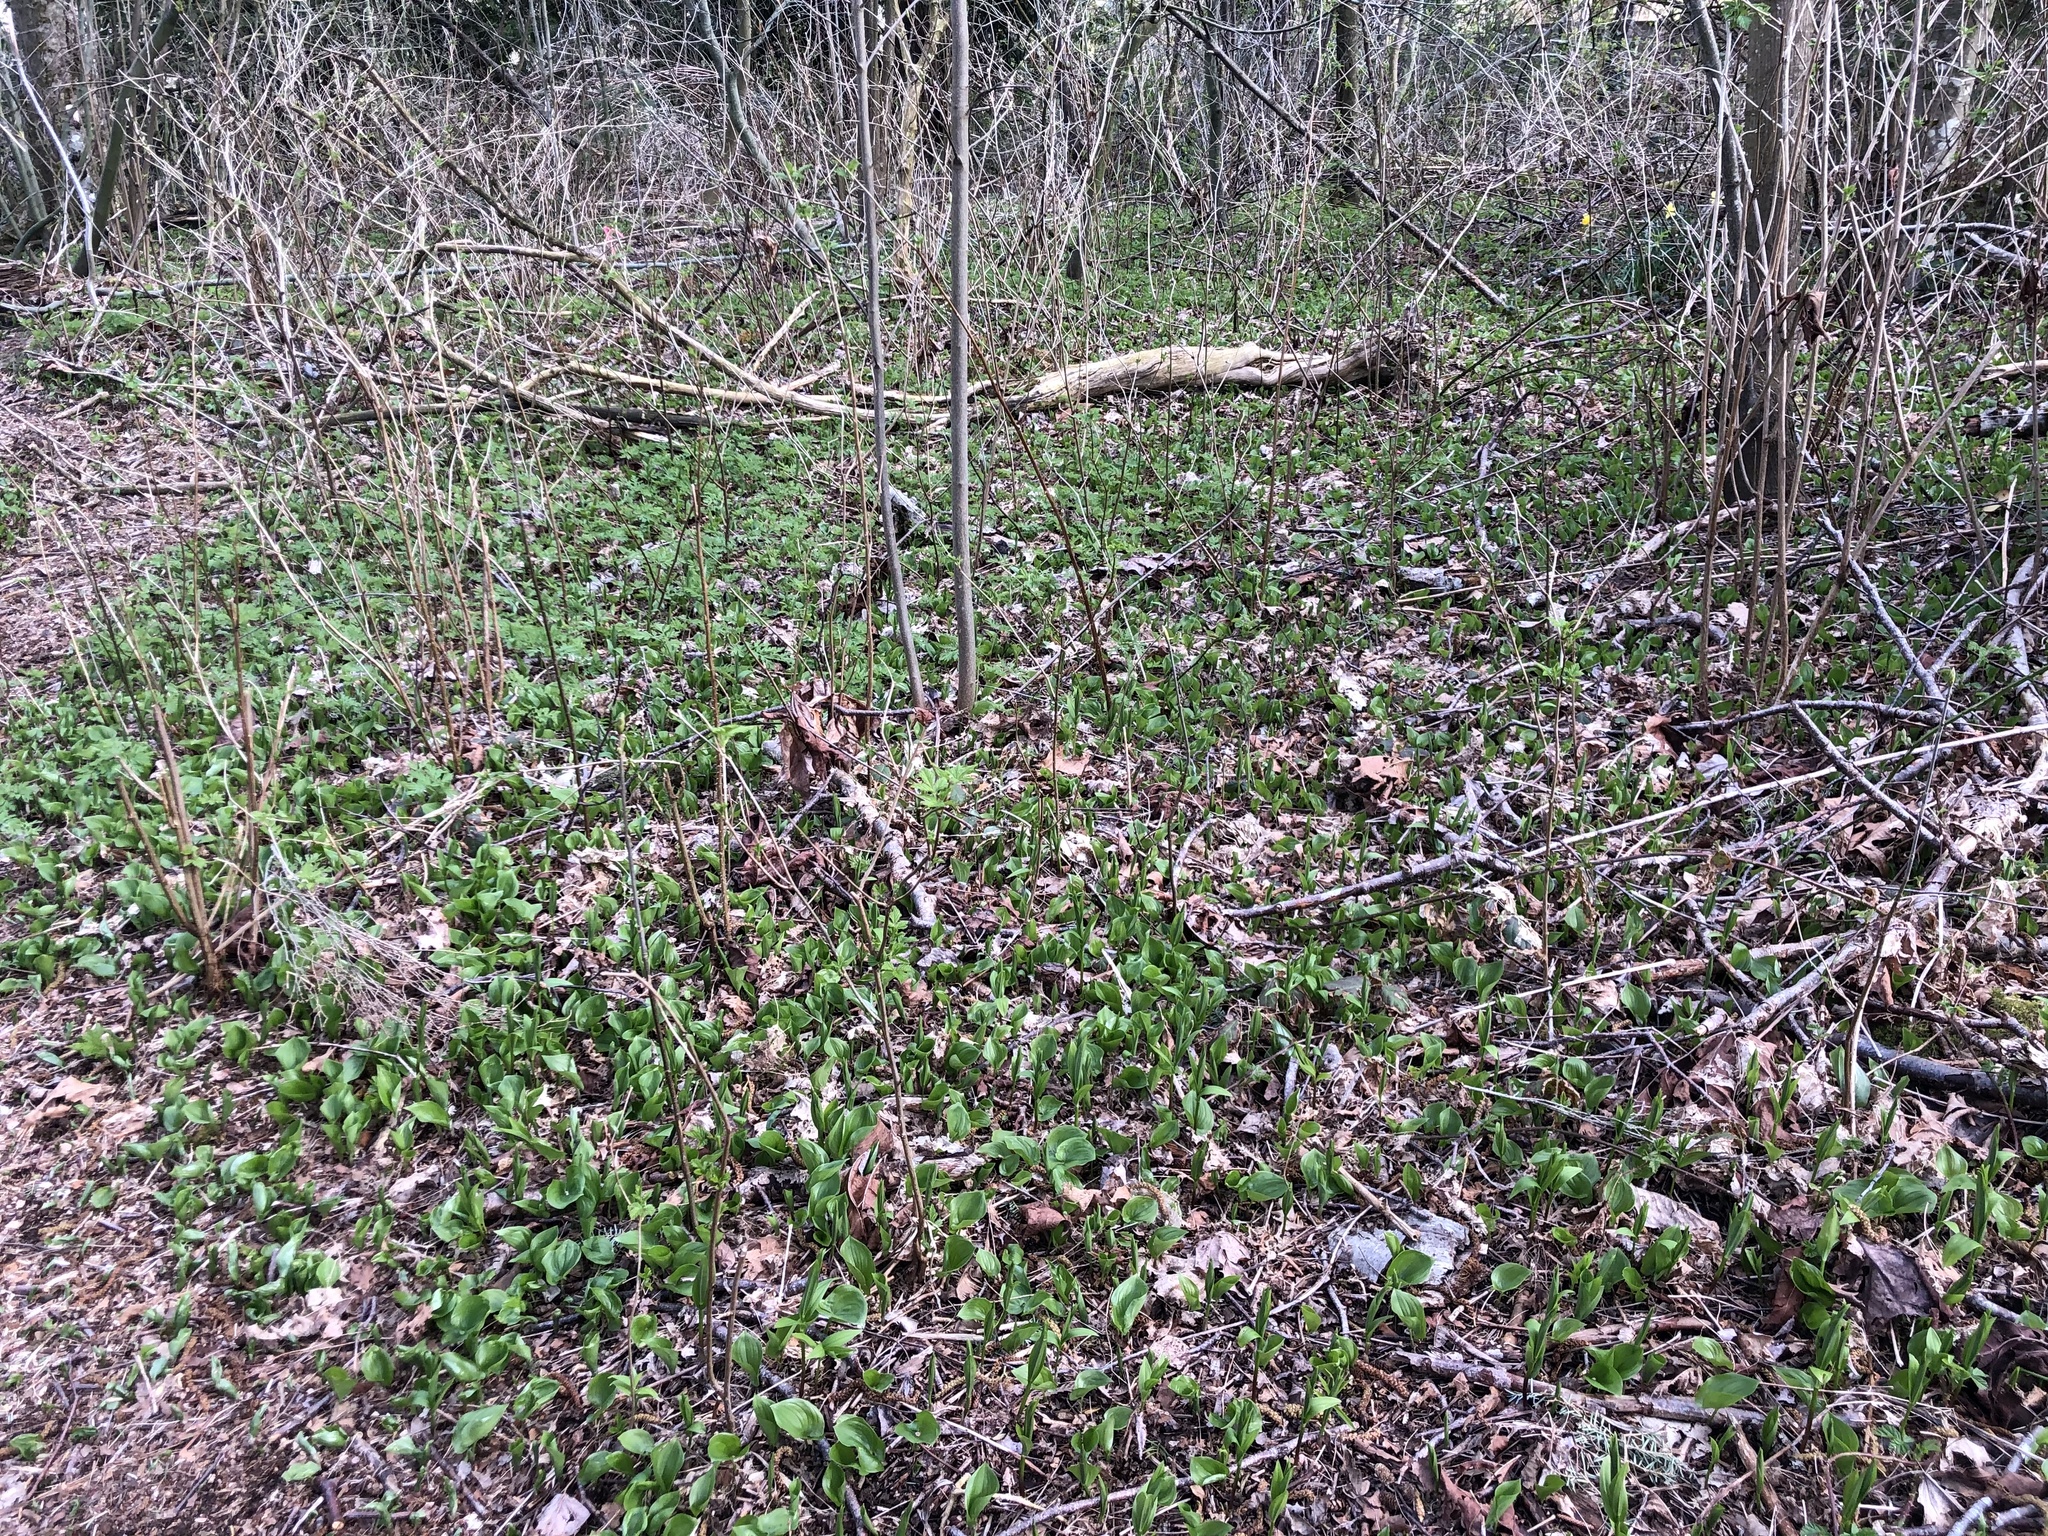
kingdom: Plantae
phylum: Tracheophyta
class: Liliopsida
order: Asparagales
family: Asparagaceae
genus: Maianthemum
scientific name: Maianthemum dilatatum
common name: False lily-of-the-valley
